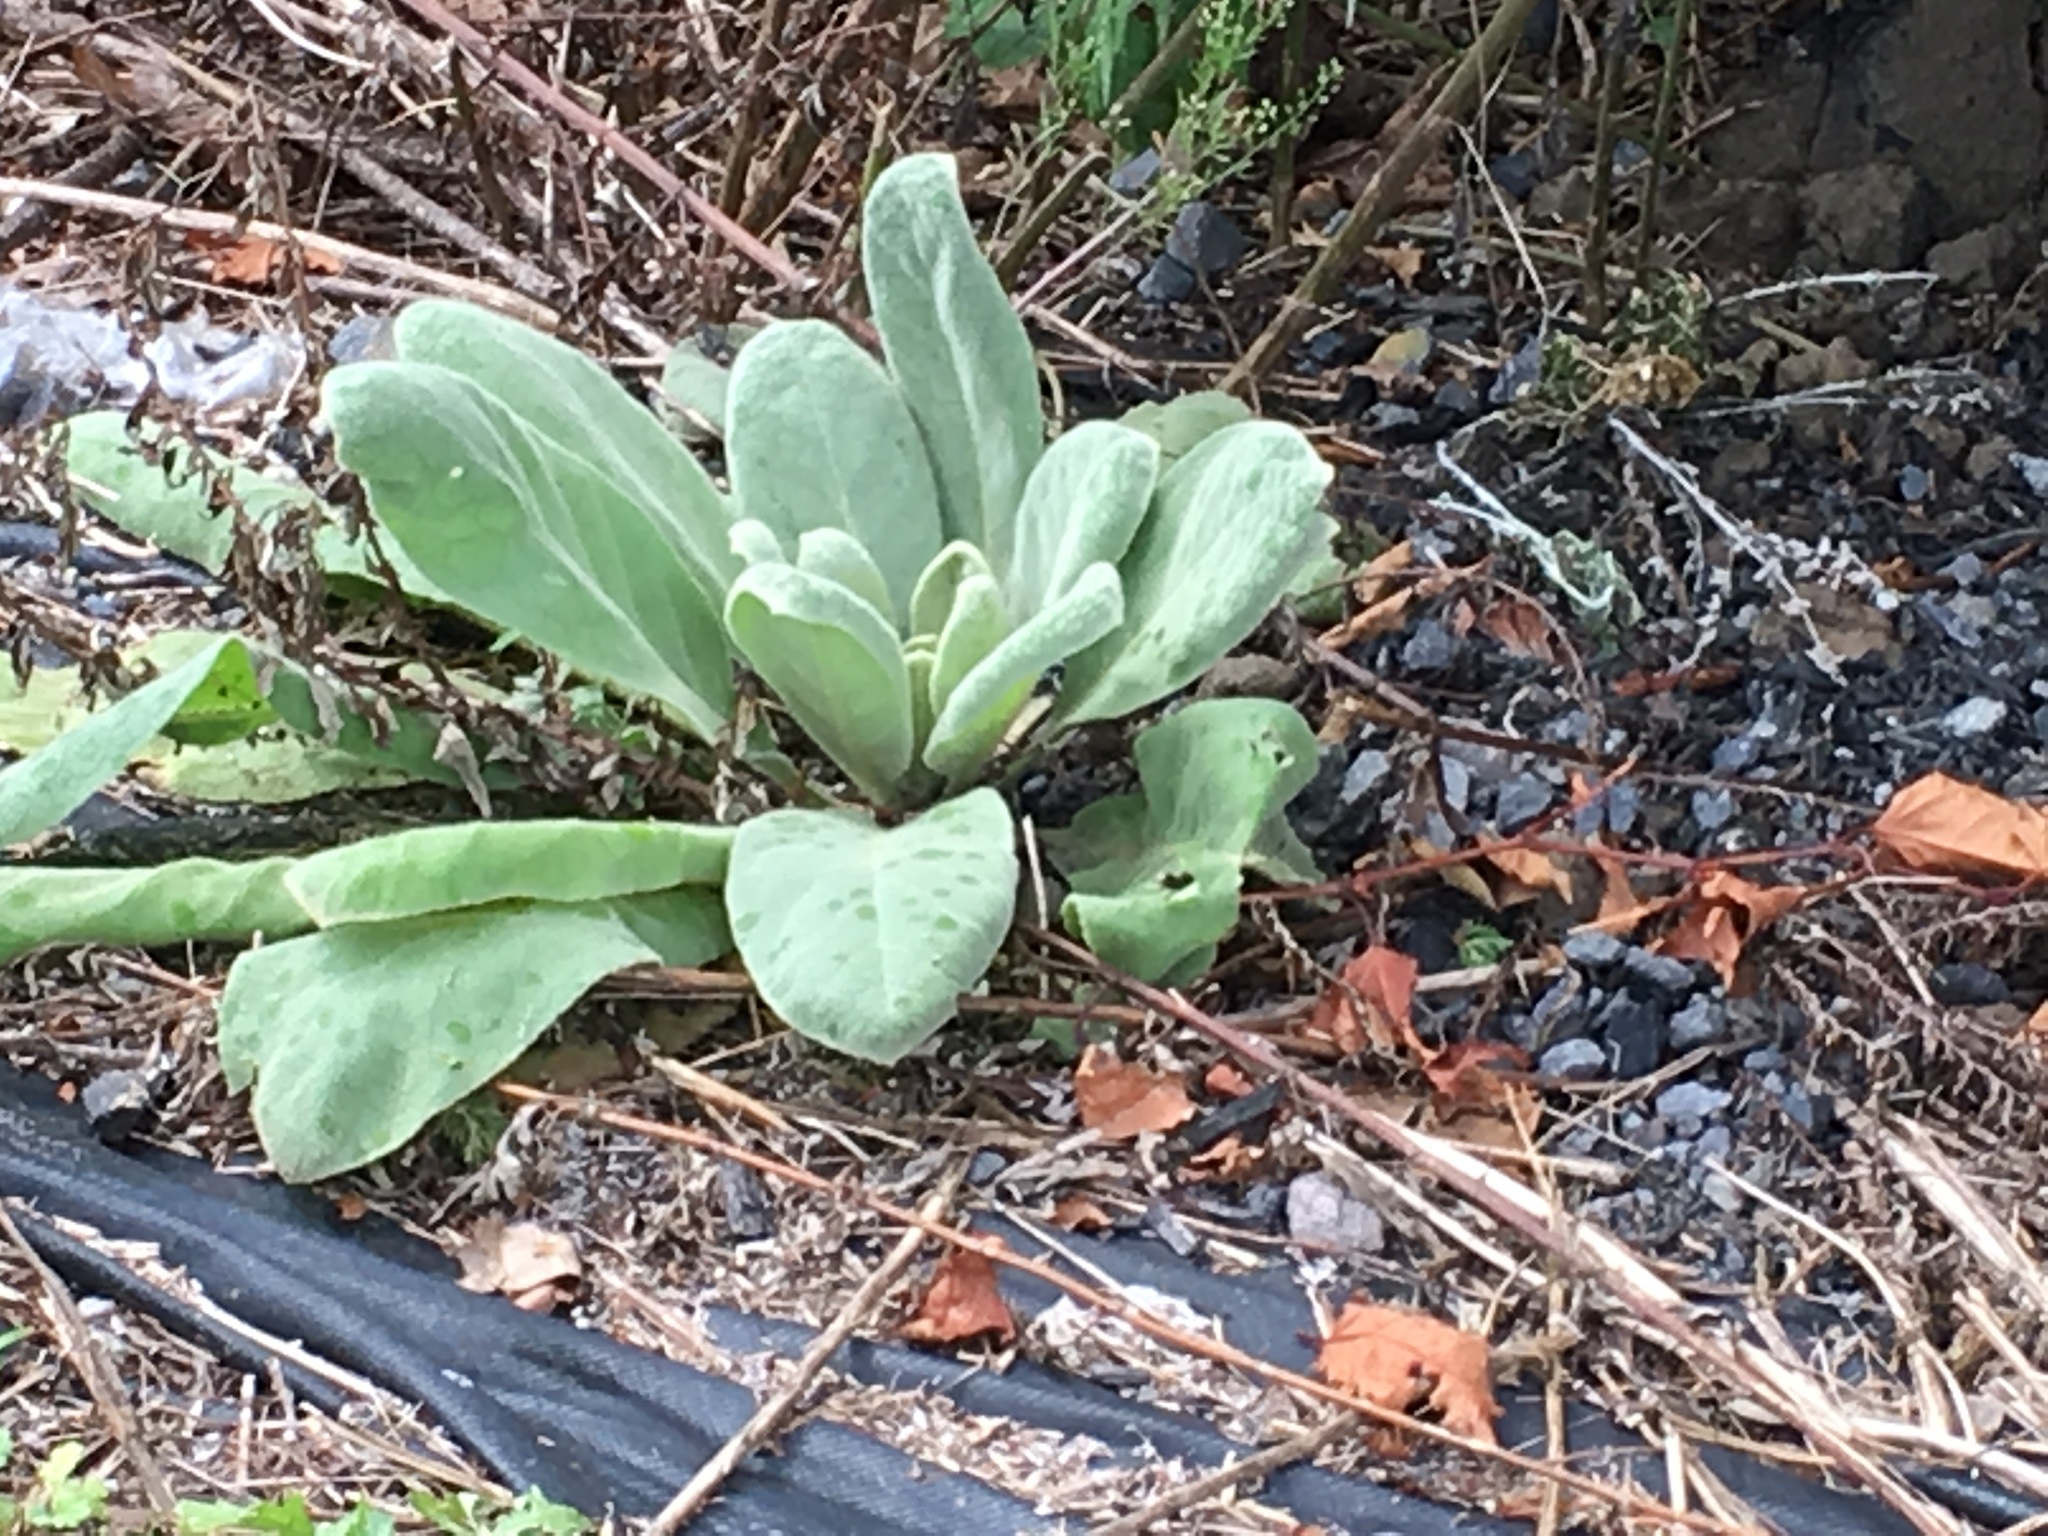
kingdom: Plantae
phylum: Tracheophyta
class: Magnoliopsida
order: Lamiales
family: Scrophulariaceae
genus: Verbascum
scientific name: Verbascum thapsus
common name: Common mullein
